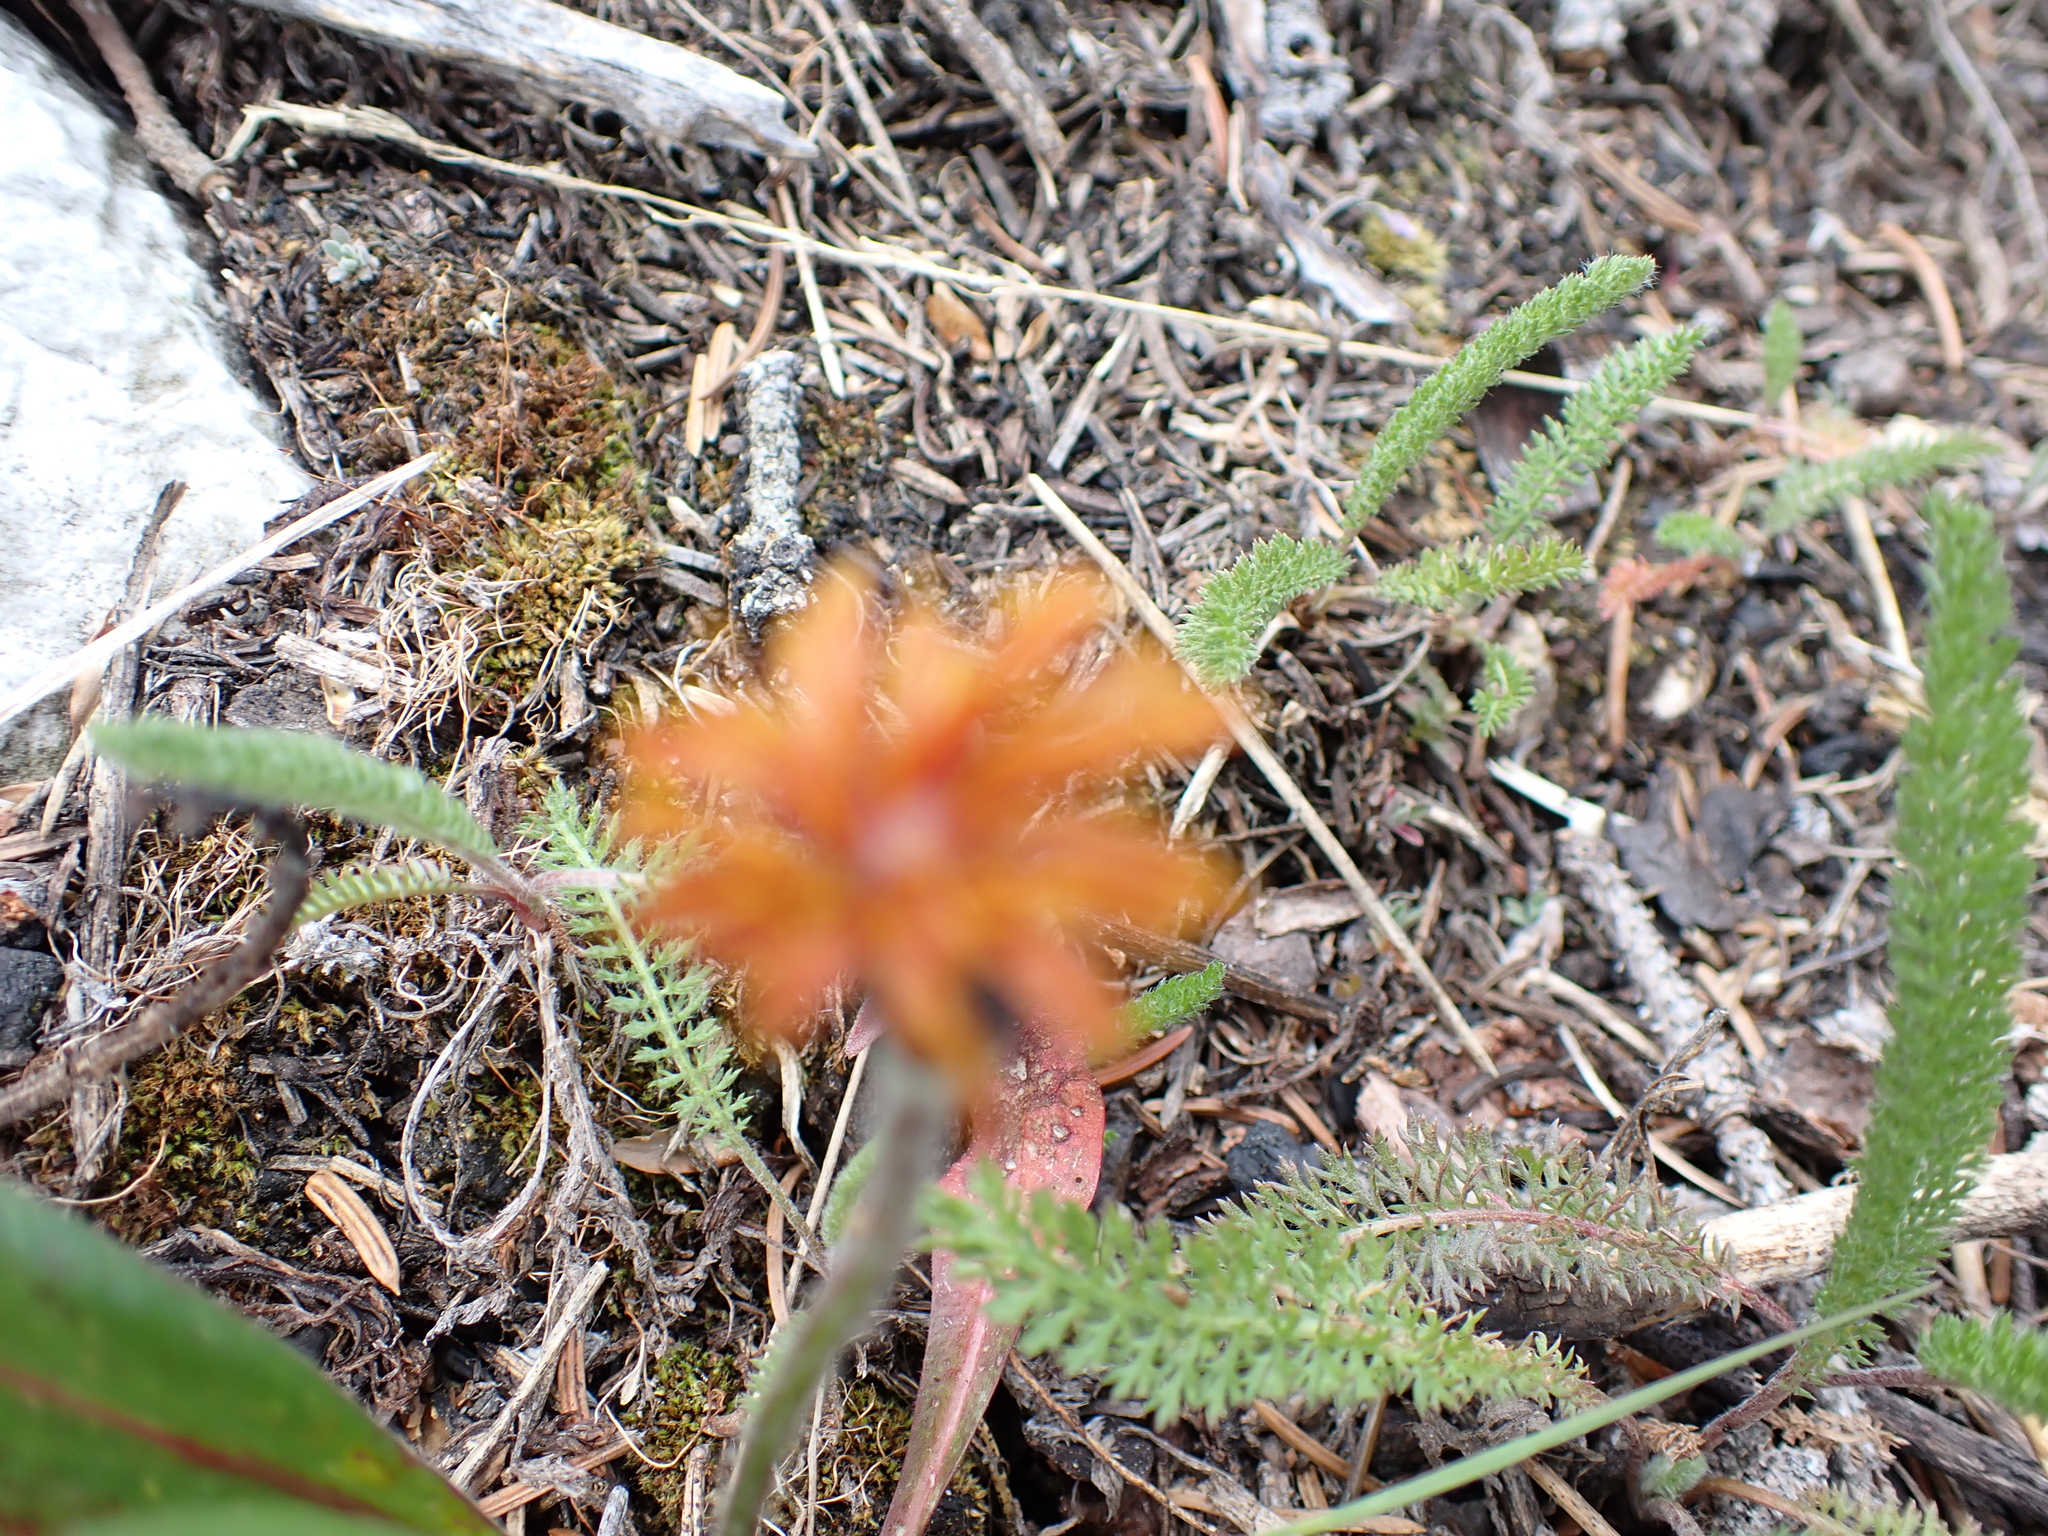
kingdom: Plantae
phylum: Tracheophyta
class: Magnoliopsida
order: Asterales
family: Asteraceae
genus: Agoseris
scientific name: Agoseris aurantiaca
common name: Mountain agoseris
